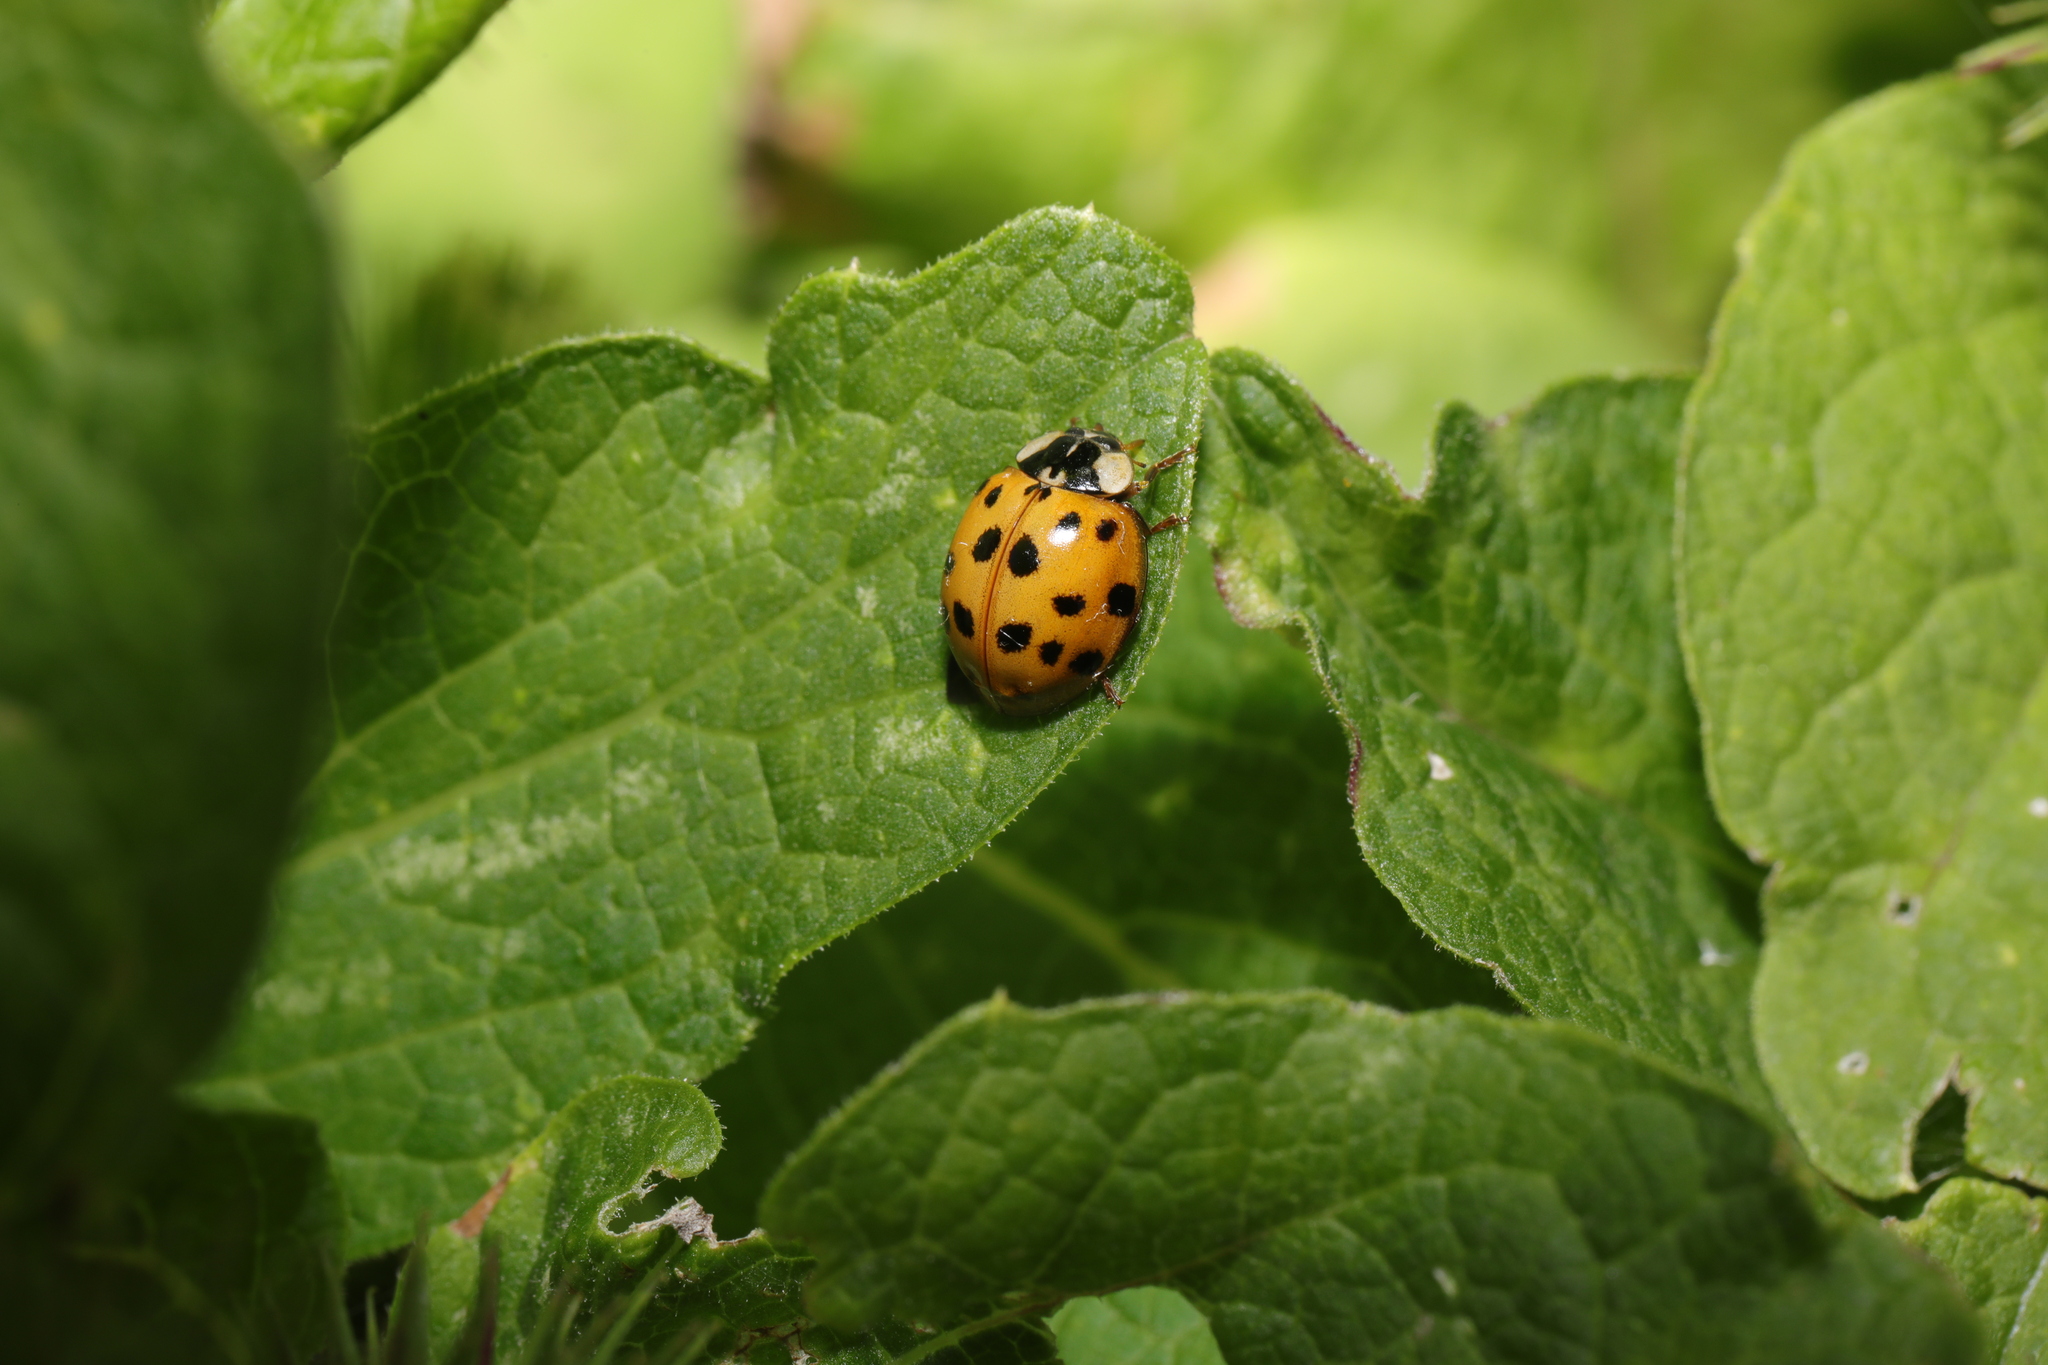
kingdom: Animalia
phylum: Arthropoda
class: Insecta
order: Coleoptera
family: Coccinellidae
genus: Harmonia
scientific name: Harmonia axyridis
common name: Harlequin ladybird
